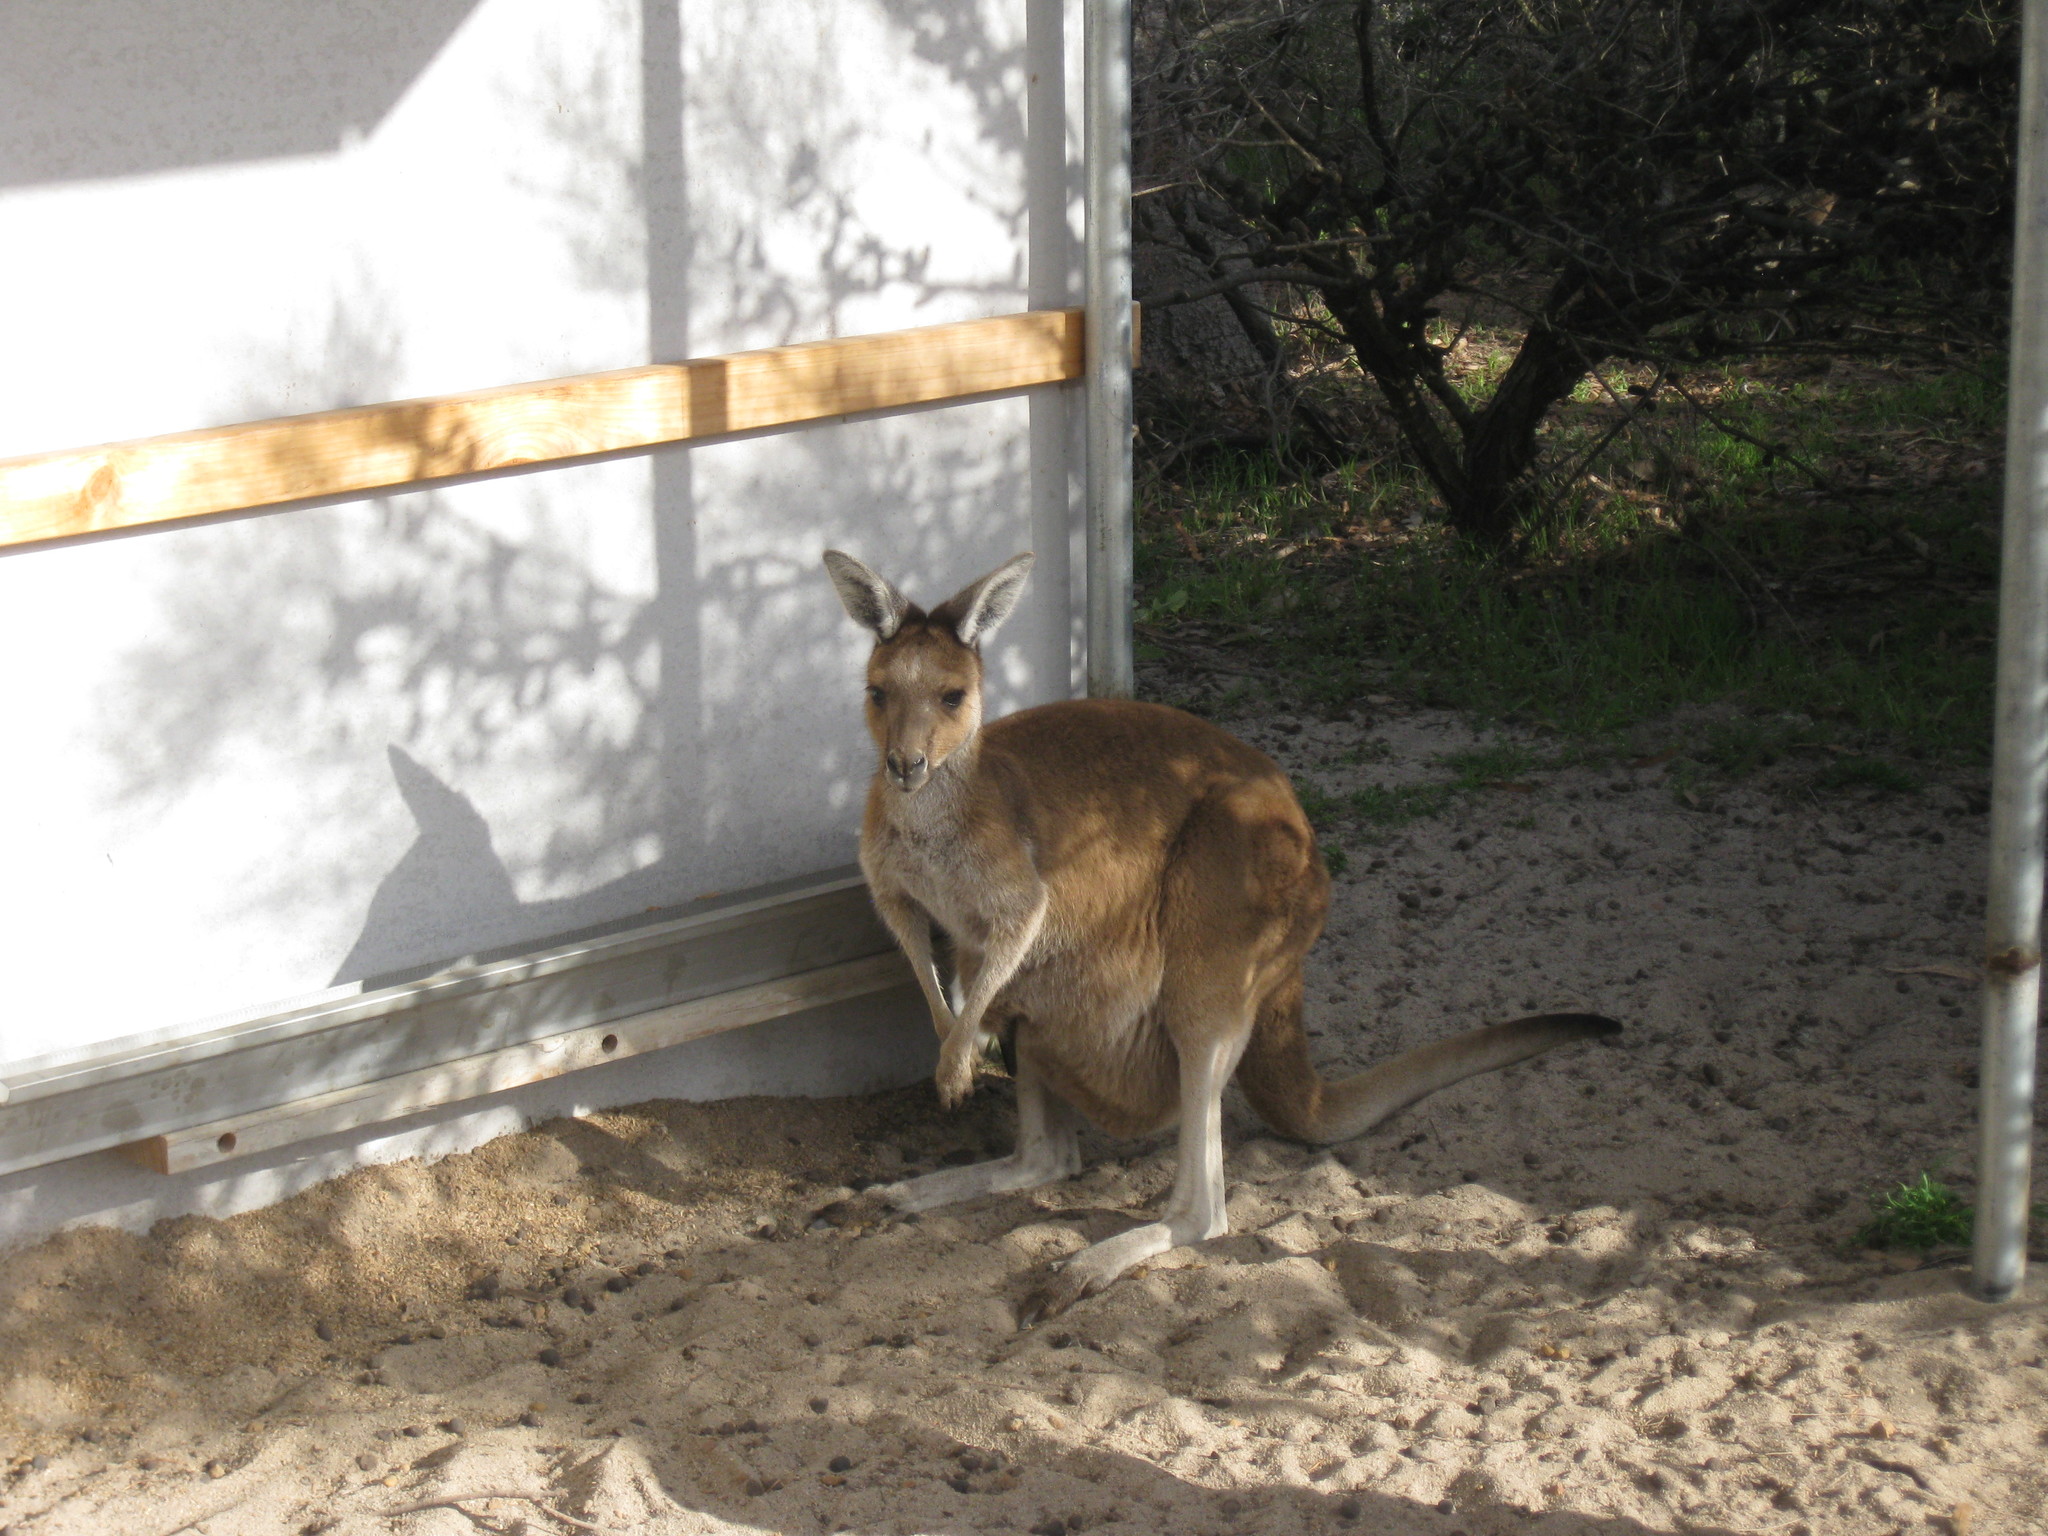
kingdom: Animalia
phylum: Chordata
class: Mammalia
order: Diprotodontia
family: Macropodidae
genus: Macropus
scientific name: Macropus fuliginosus
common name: Western grey kangaroo
